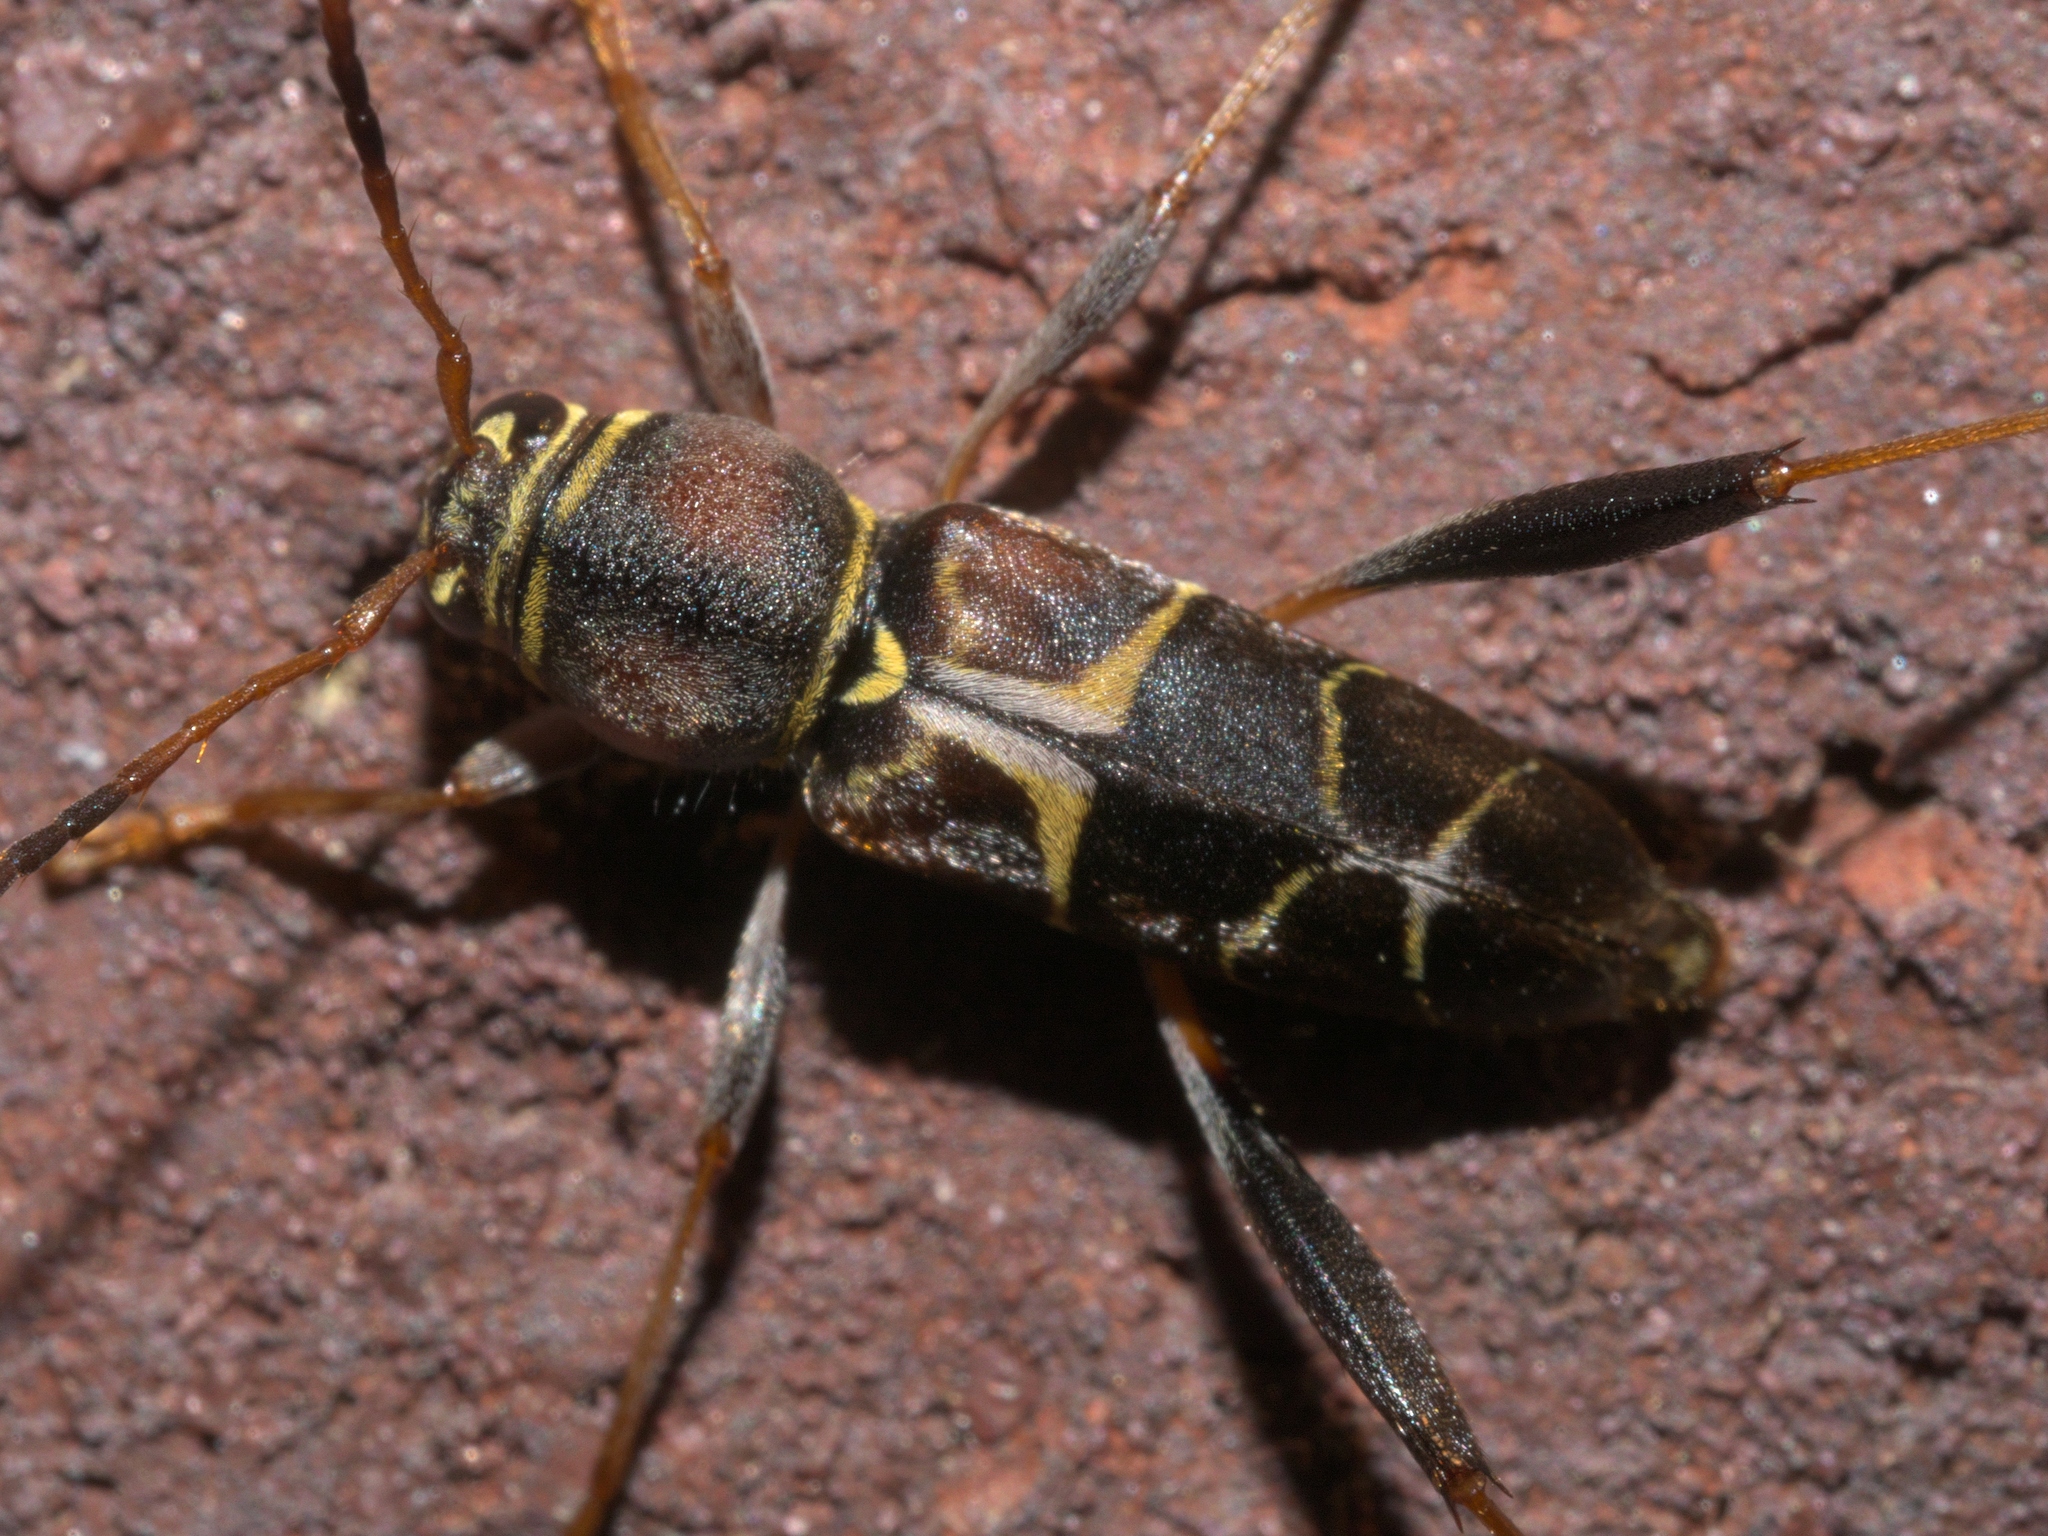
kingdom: Animalia
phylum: Arthropoda
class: Insecta
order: Coleoptera
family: Cerambycidae
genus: Neoclytus
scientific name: Neoclytus mucronatus
